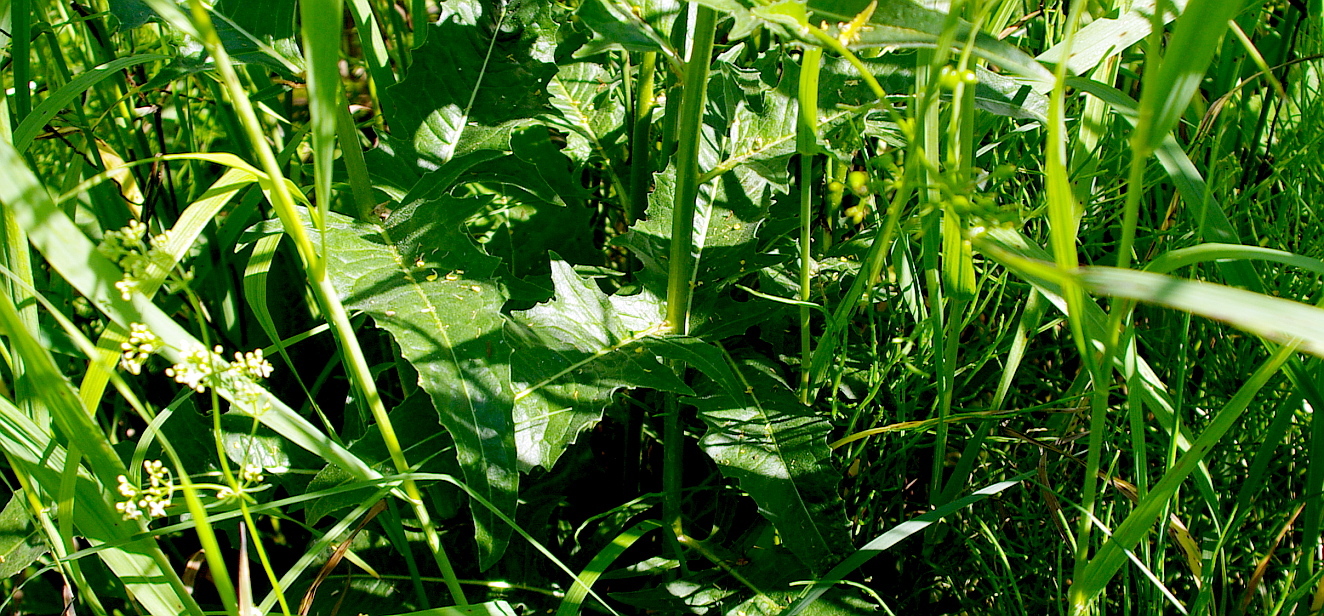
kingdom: Plantae
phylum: Tracheophyta
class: Magnoliopsida
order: Brassicales
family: Brassicaceae
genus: Bunias
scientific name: Bunias orientalis
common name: Warty-cabbage
